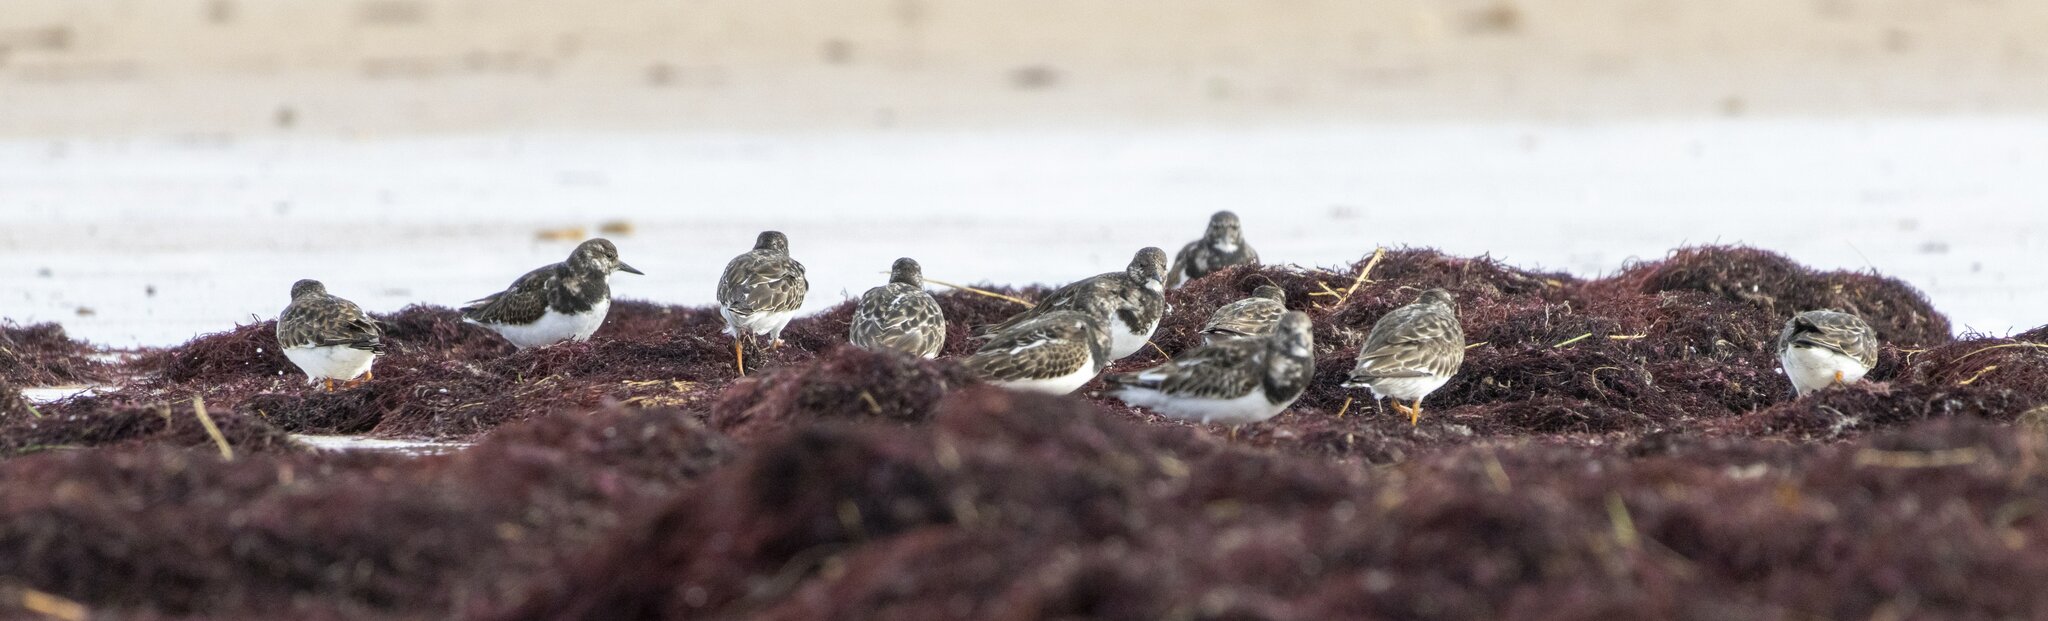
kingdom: Animalia
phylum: Chordata
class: Aves
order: Charadriiformes
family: Scolopacidae
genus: Arenaria
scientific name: Arenaria interpres
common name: Ruddy turnstone
